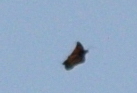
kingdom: Animalia
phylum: Arthropoda
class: Insecta
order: Lepidoptera
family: Nymphalidae
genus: Danaus
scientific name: Danaus plexippus
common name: Monarch
